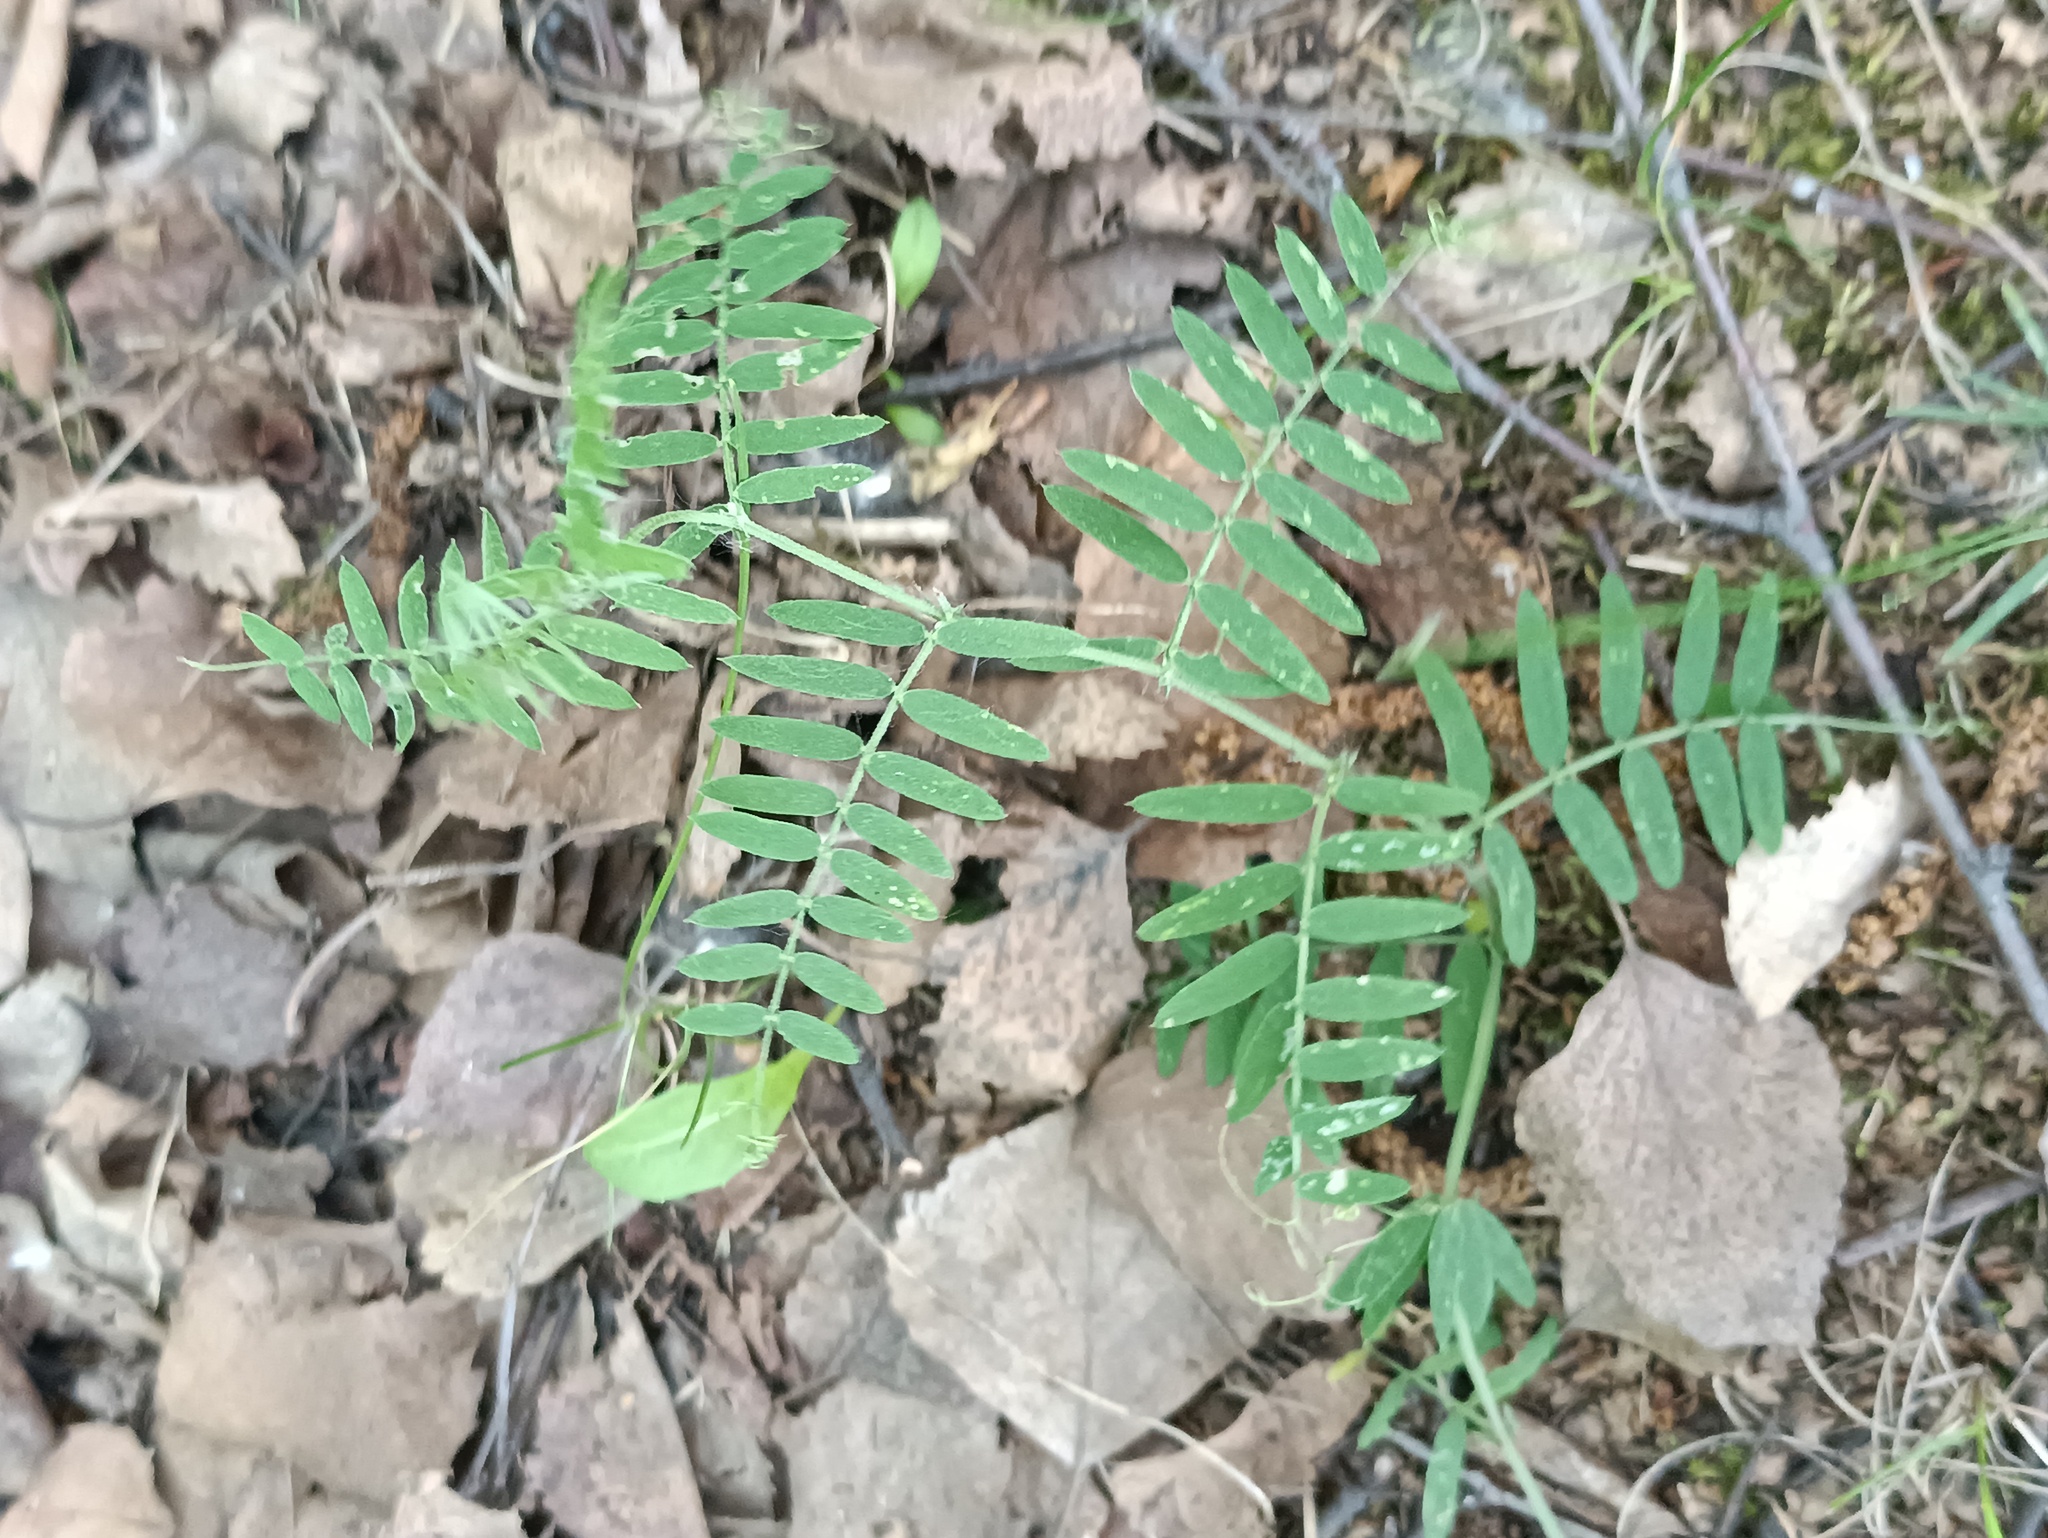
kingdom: Plantae
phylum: Tracheophyta
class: Magnoliopsida
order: Fabales
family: Fabaceae
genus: Vicia
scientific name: Vicia cracca
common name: Bird vetch
